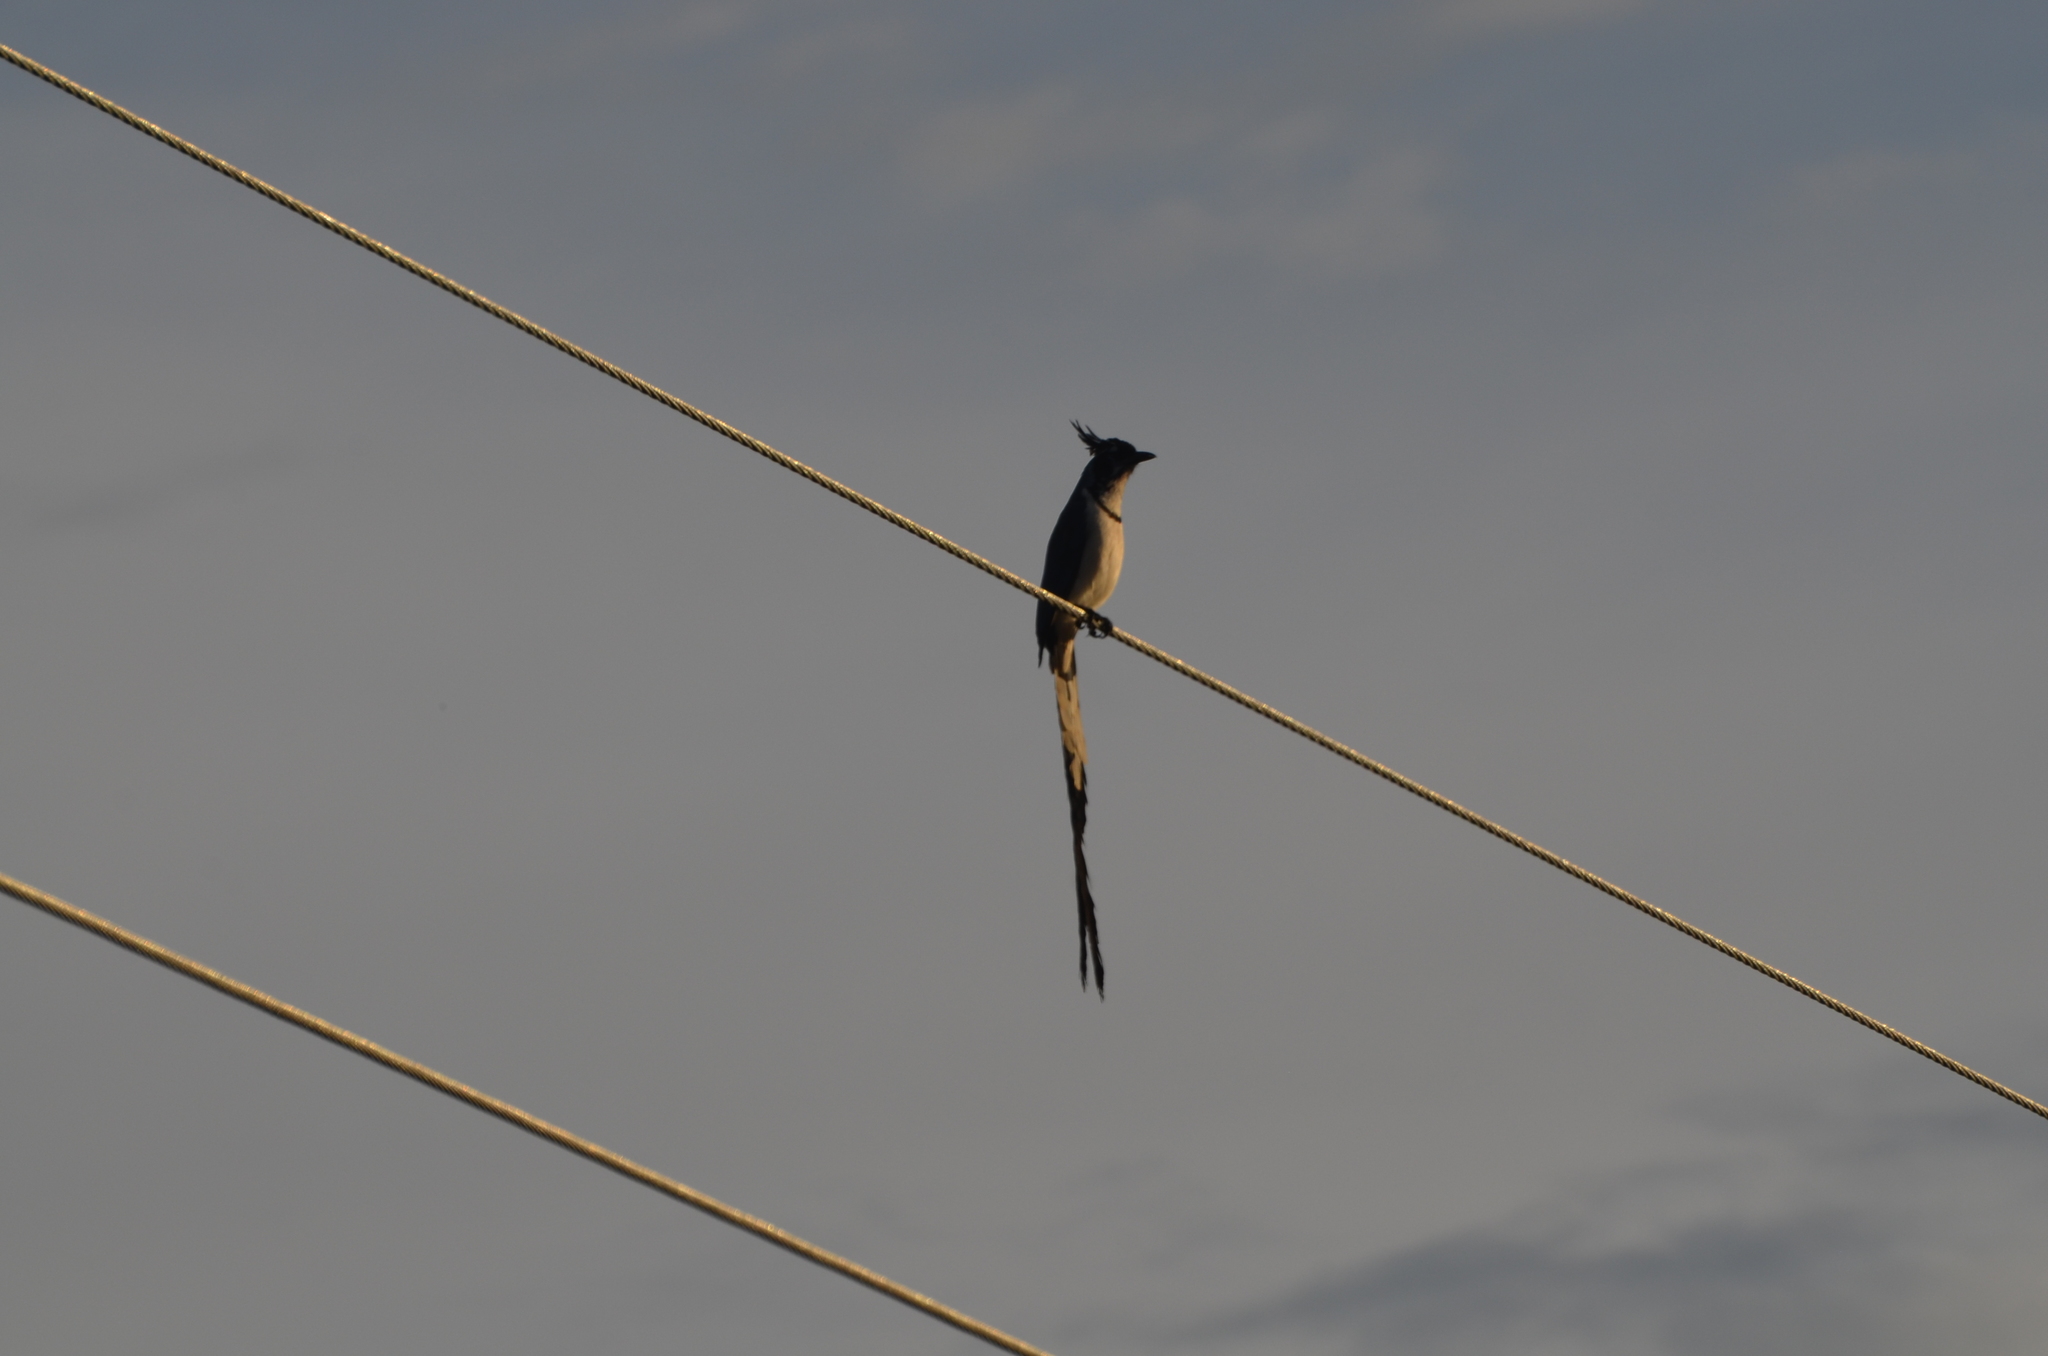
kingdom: Animalia
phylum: Chordata
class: Aves
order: Passeriformes
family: Corvidae
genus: Calocitta
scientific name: Calocitta colliei
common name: Black-throated magpie-jay
